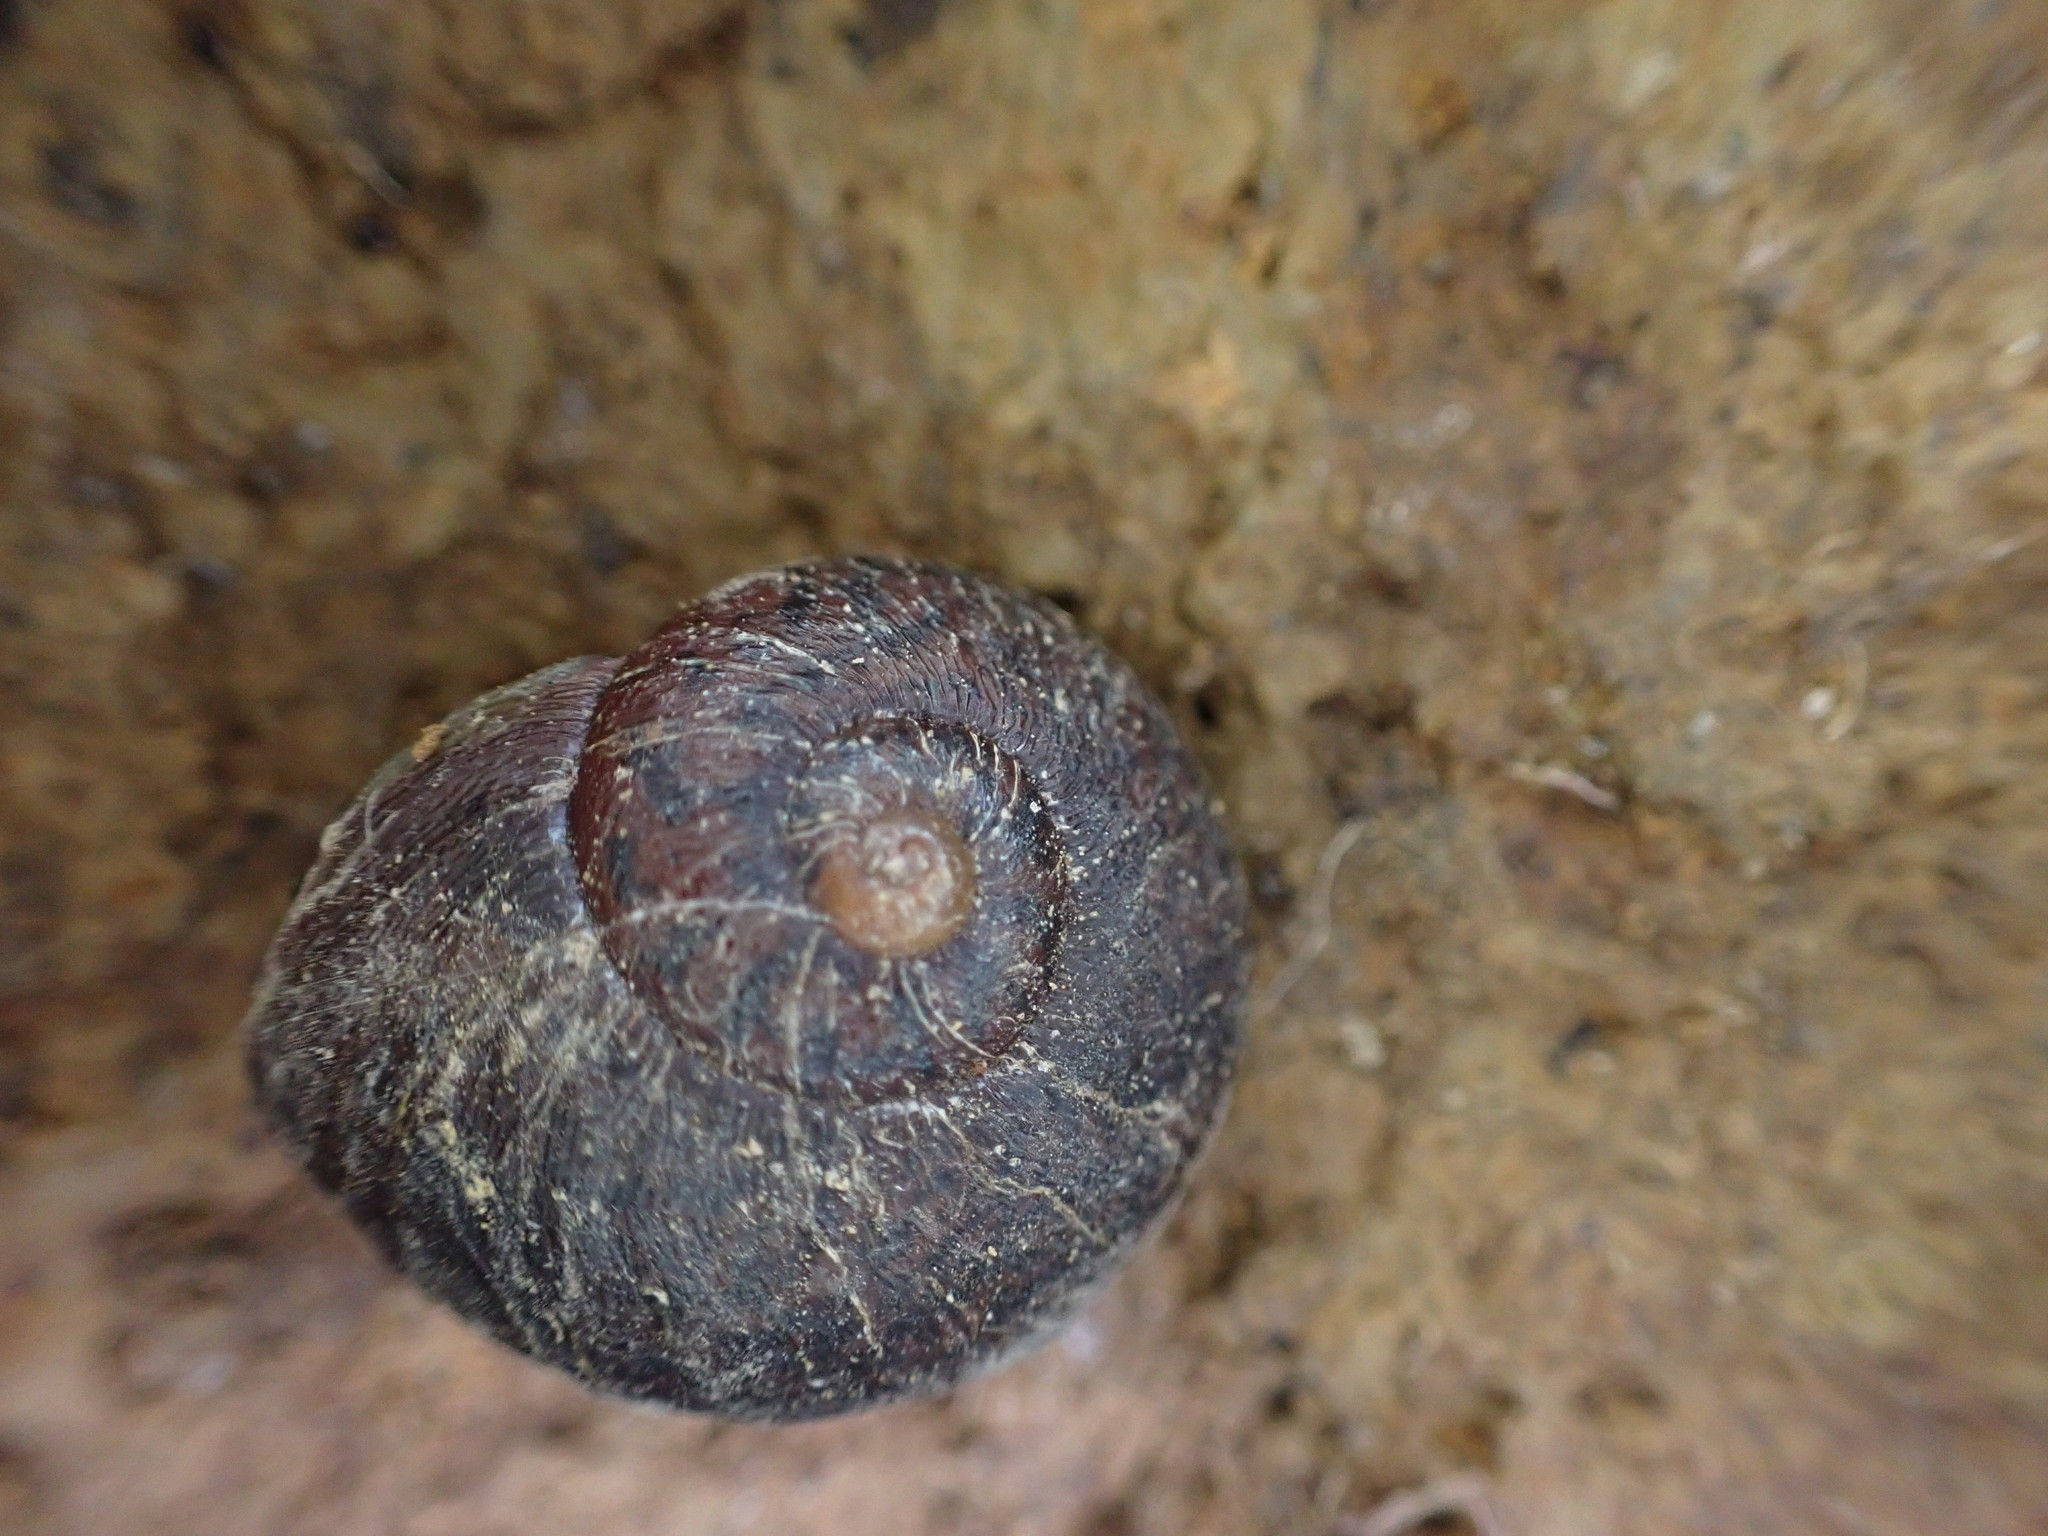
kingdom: Animalia
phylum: Mollusca
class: Gastropoda
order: Stylommatophora
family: Rhytididae
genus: Rhytida
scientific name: Rhytida greenwoodi
